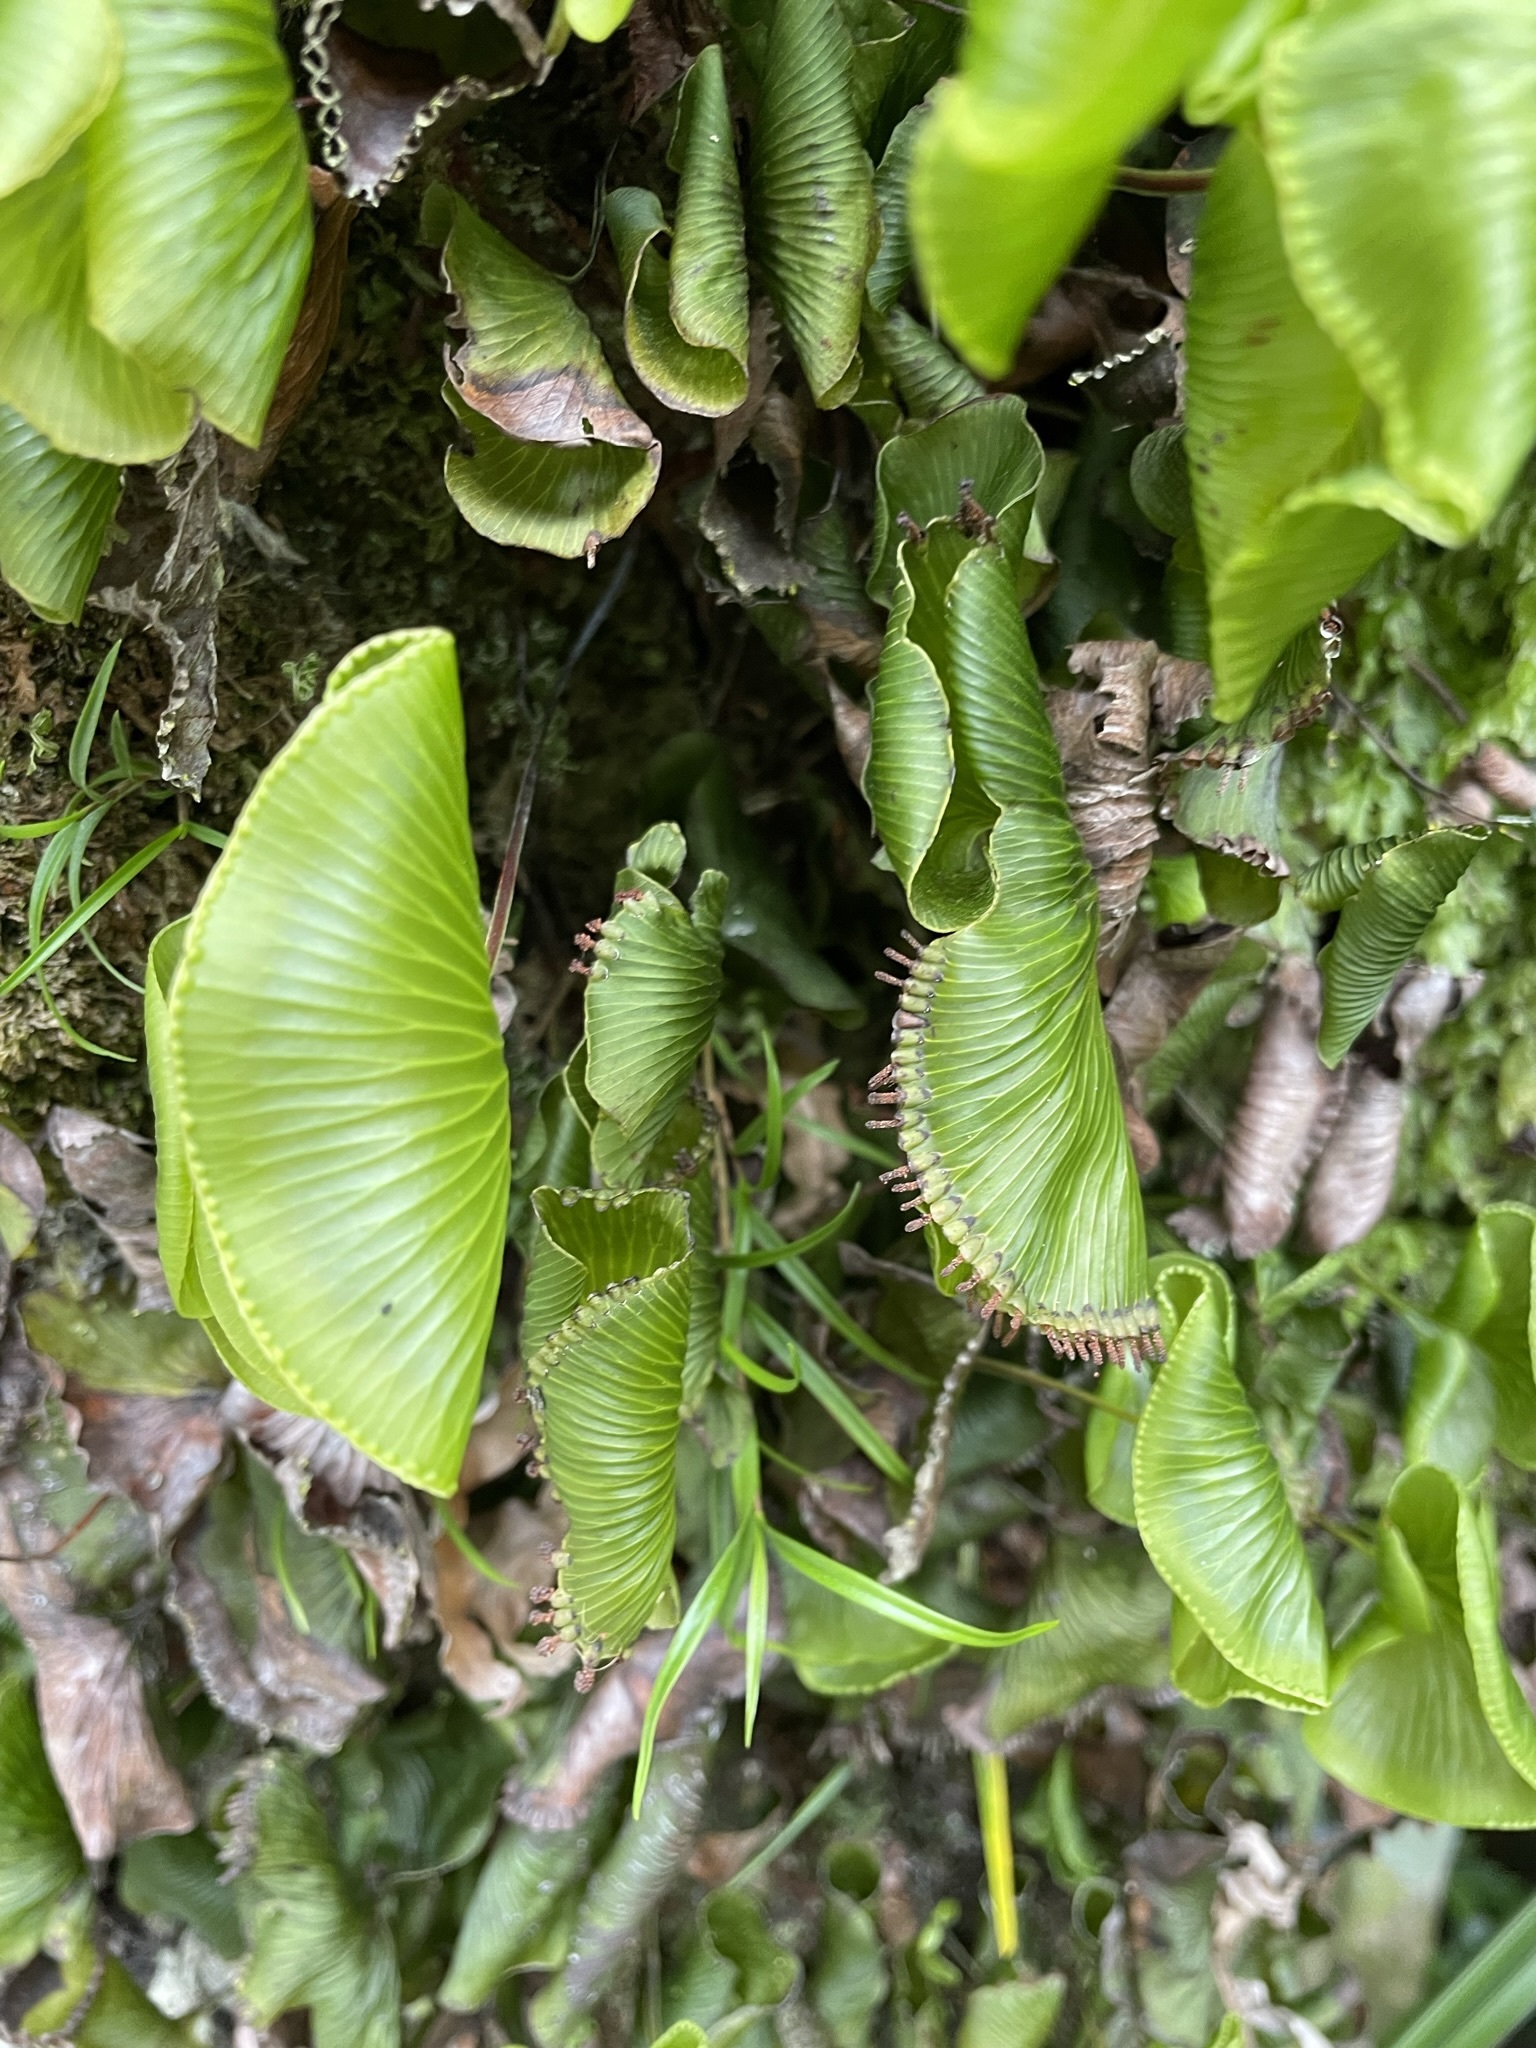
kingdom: Plantae
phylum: Tracheophyta
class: Polypodiopsida
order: Hymenophyllales
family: Hymenophyllaceae
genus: Hymenophyllum
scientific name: Hymenophyllum nephrophyllum
